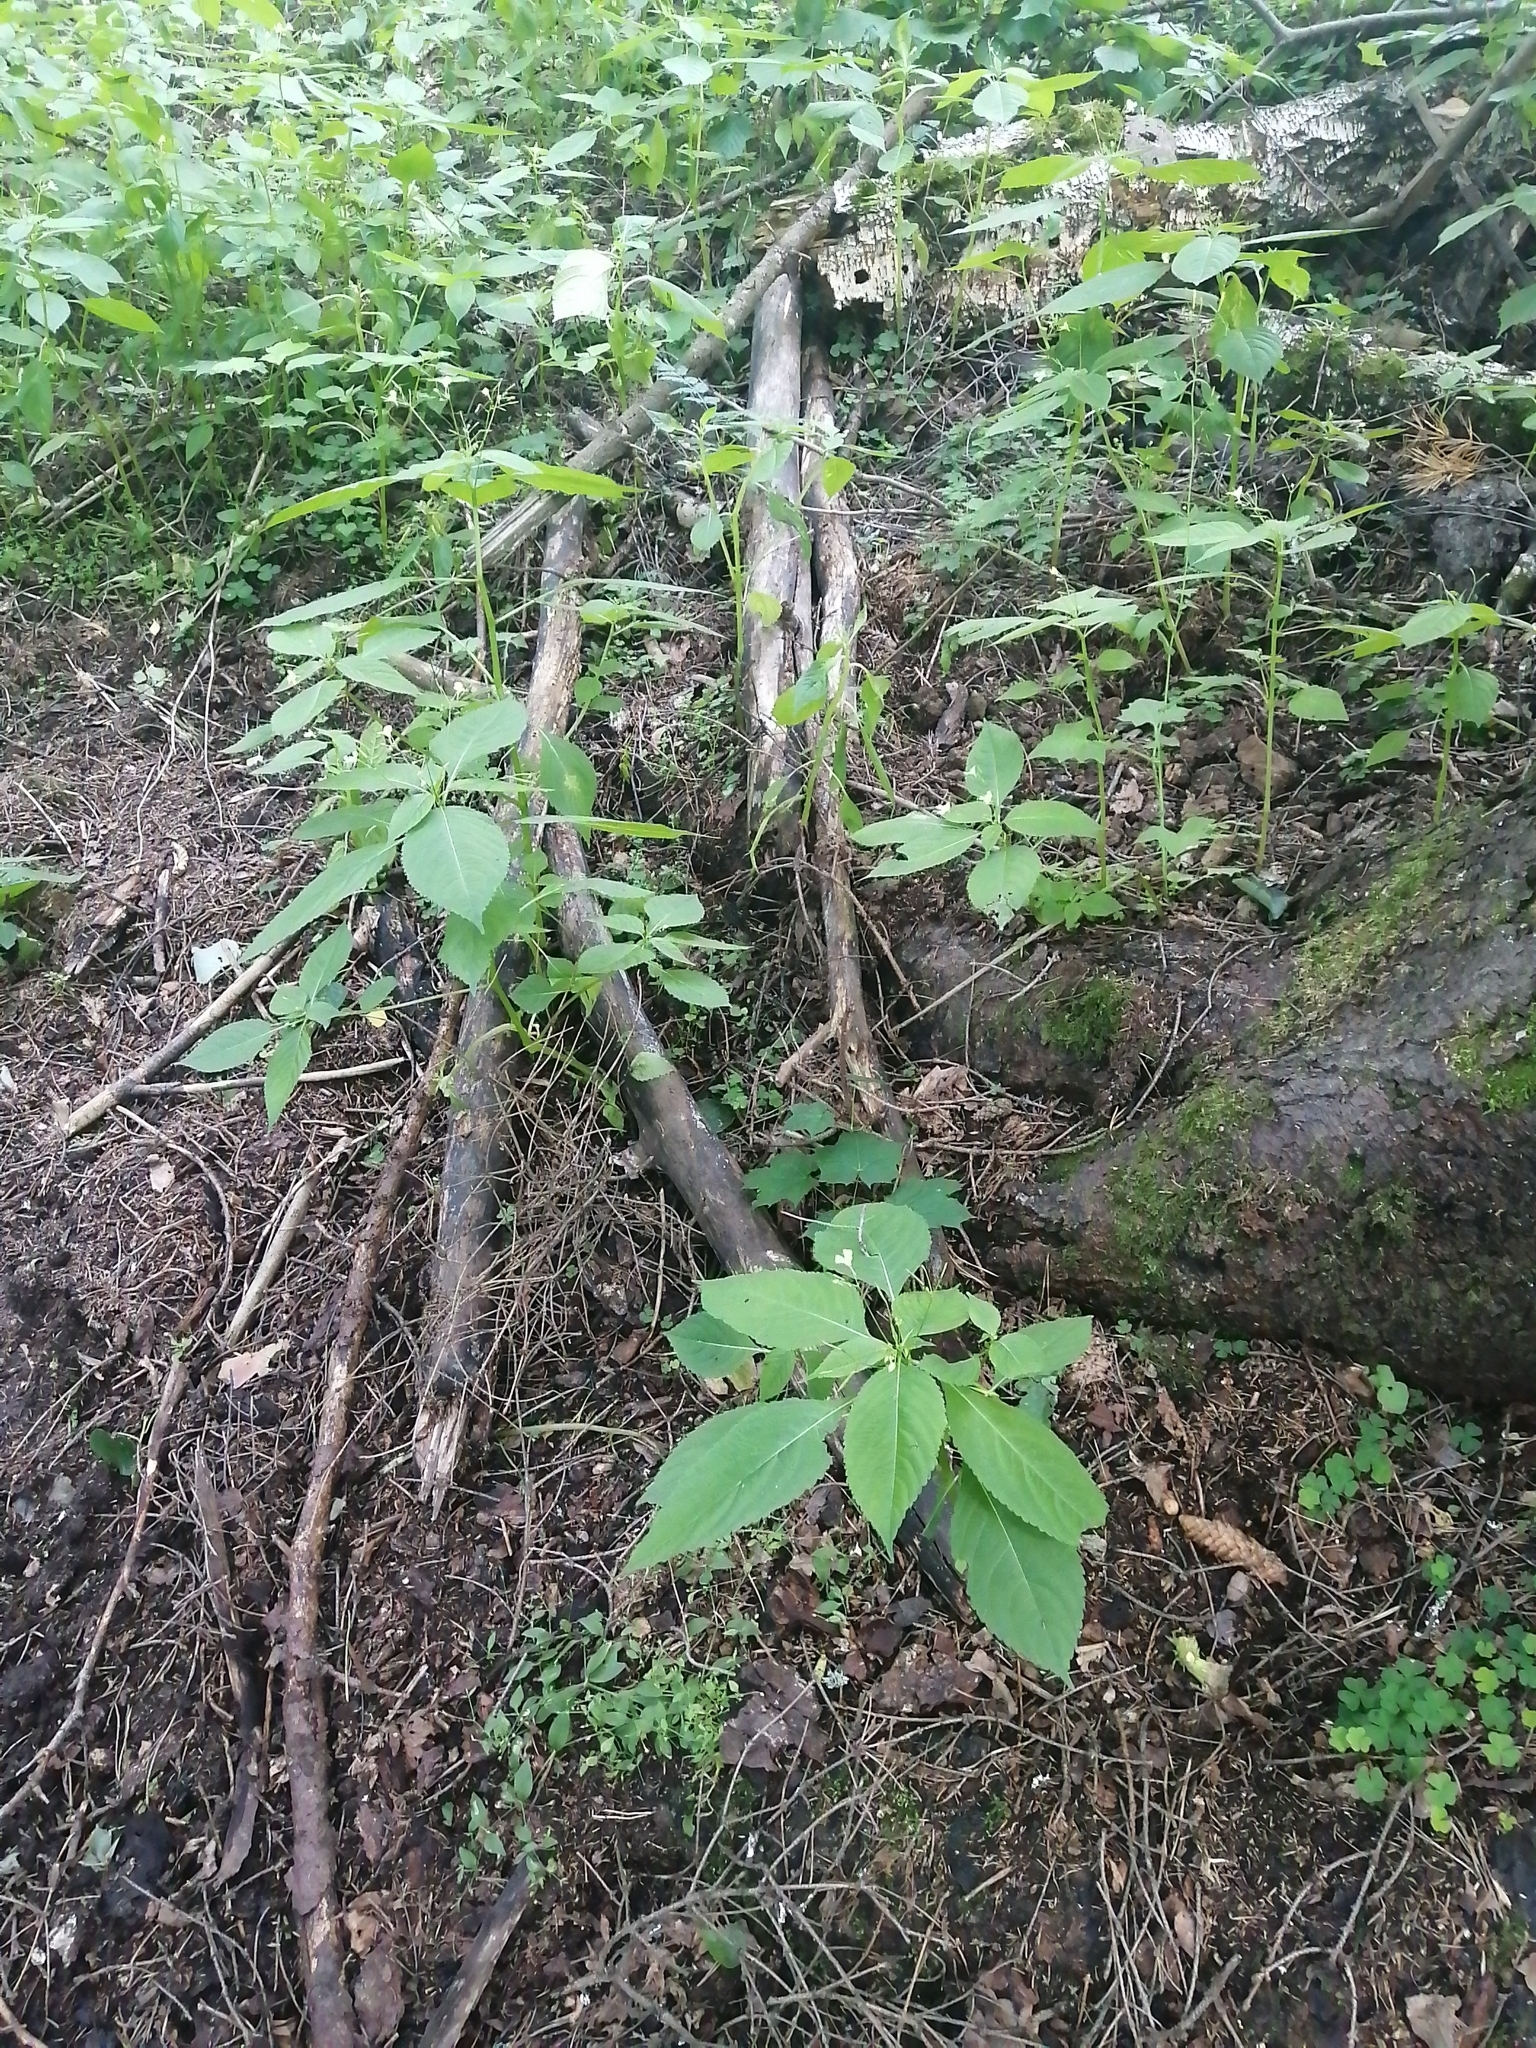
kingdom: Plantae
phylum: Tracheophyta
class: Magnoliopsida
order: Ericales
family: Balsaminaceae
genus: Impatiens
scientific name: Impatiens parviflora
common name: Small balsam
